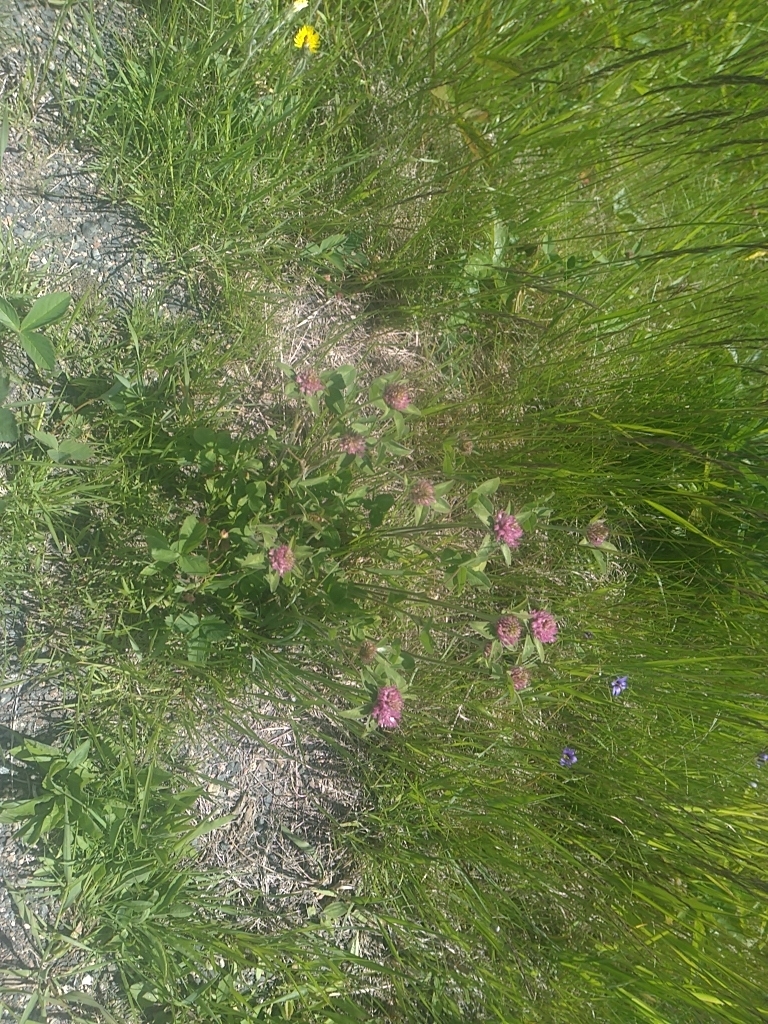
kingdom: Plantae
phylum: Tracheophyta
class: Magnoliopsida
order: Fabales
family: Fabaceae
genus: Trifolium
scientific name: Trifolium pratense
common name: Red clover
